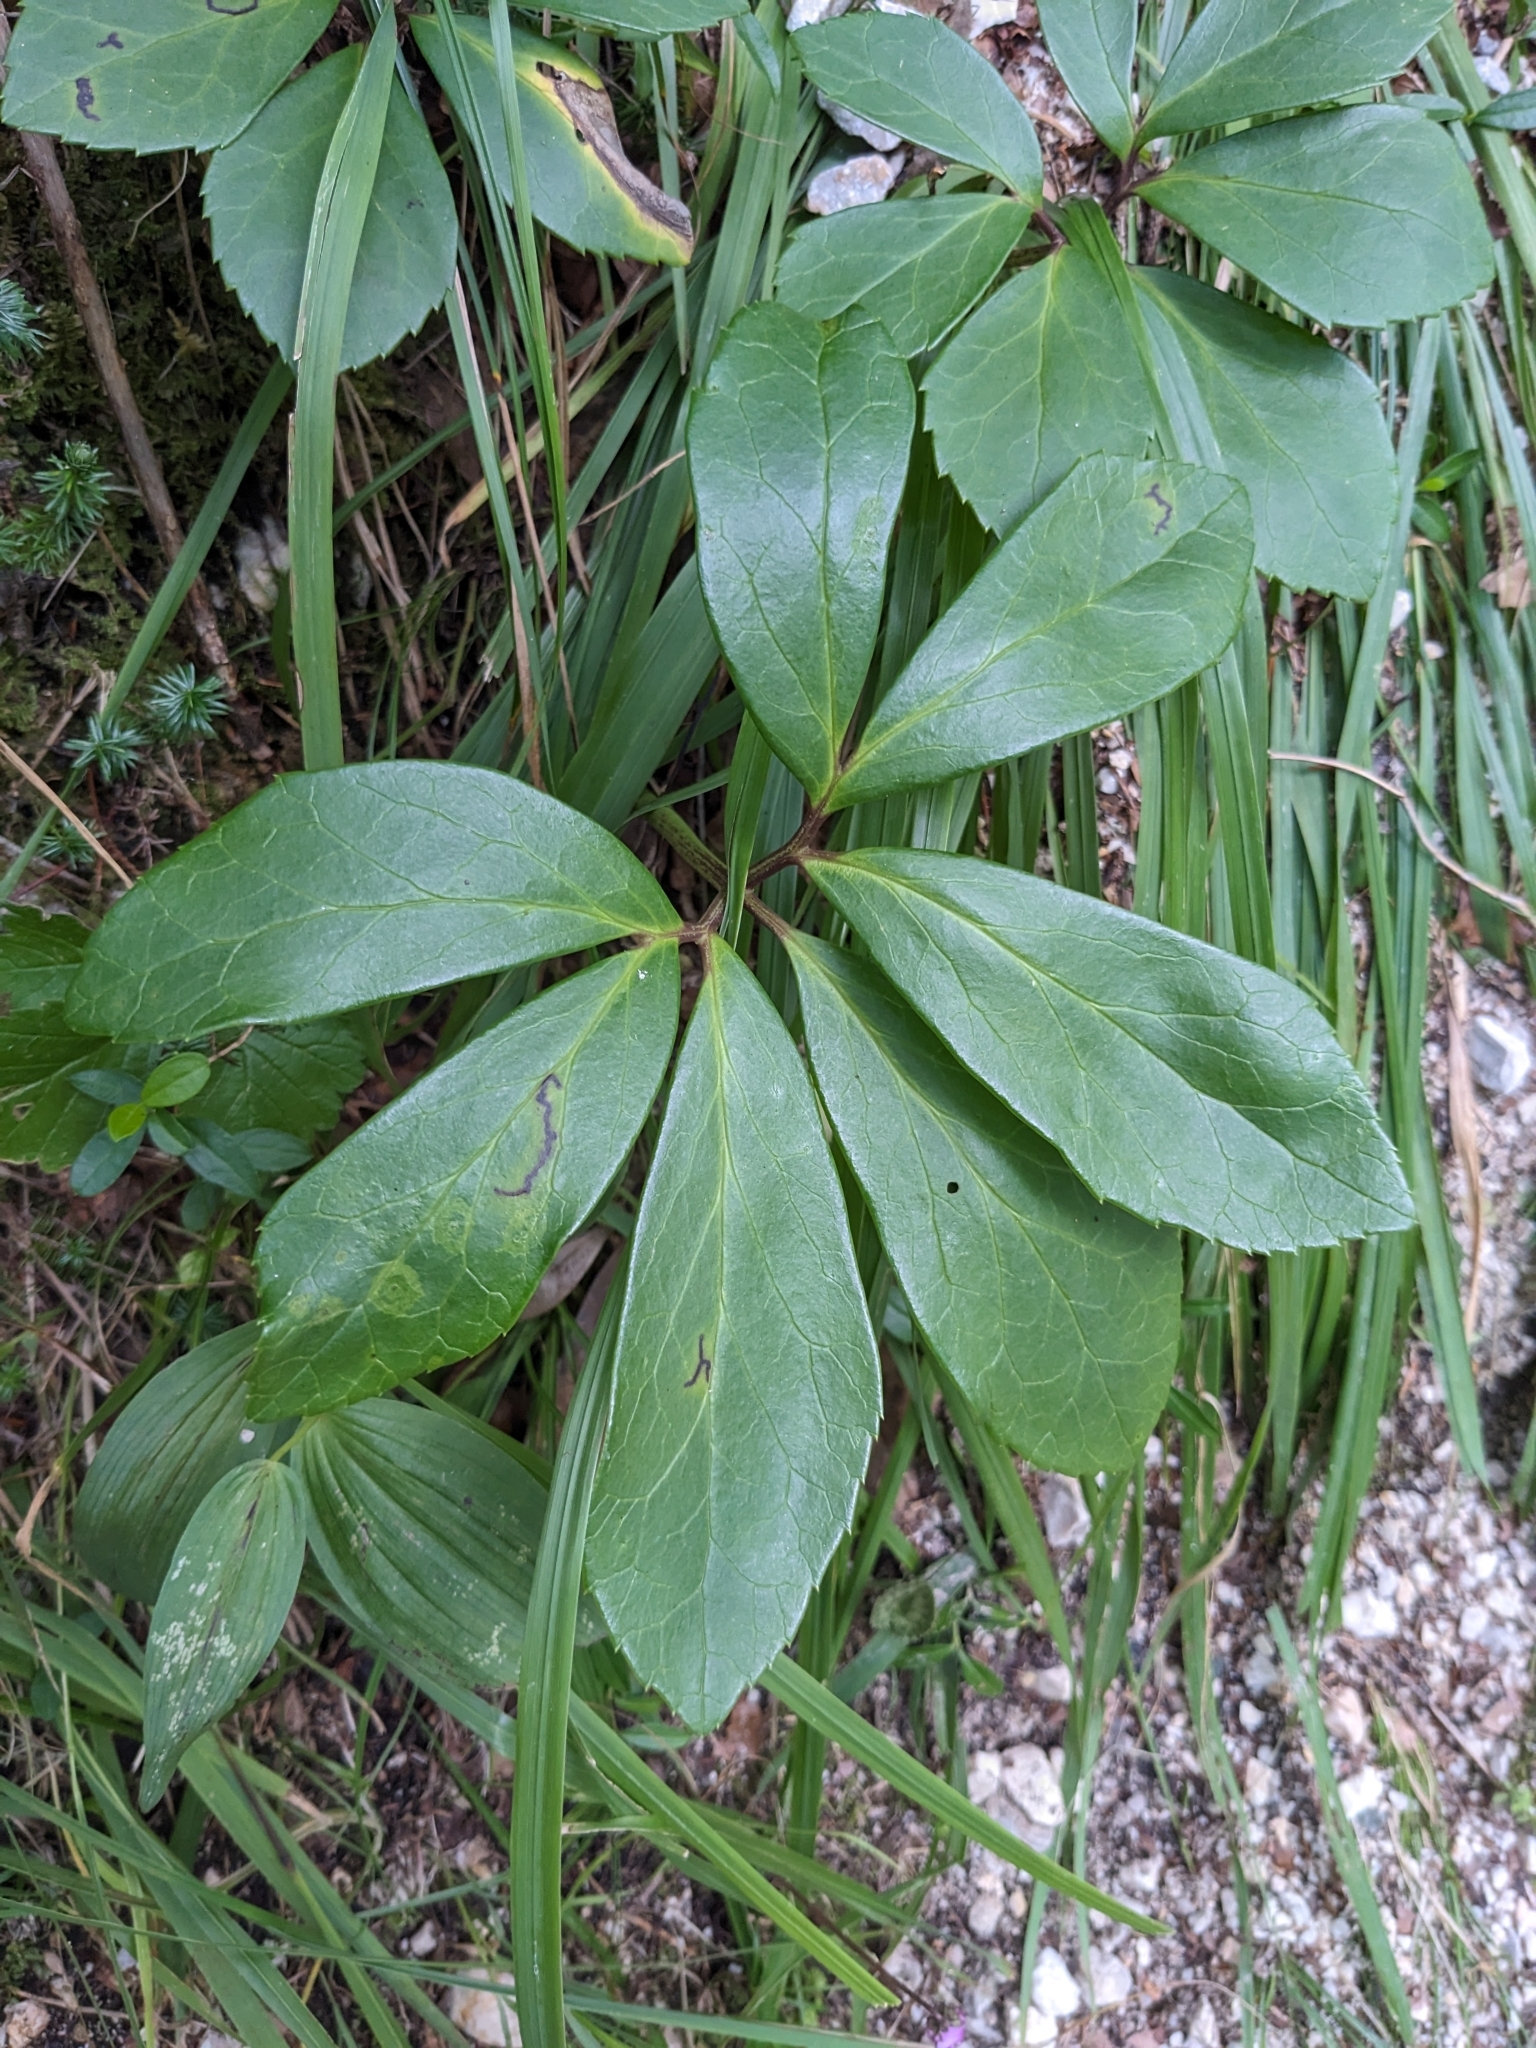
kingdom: Plantae
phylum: Tracheophyta
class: Magnoliopsida
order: Ranunculales
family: Ranunculaceae
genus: Helleborus
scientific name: Helleborus niger
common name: Black hellebore
